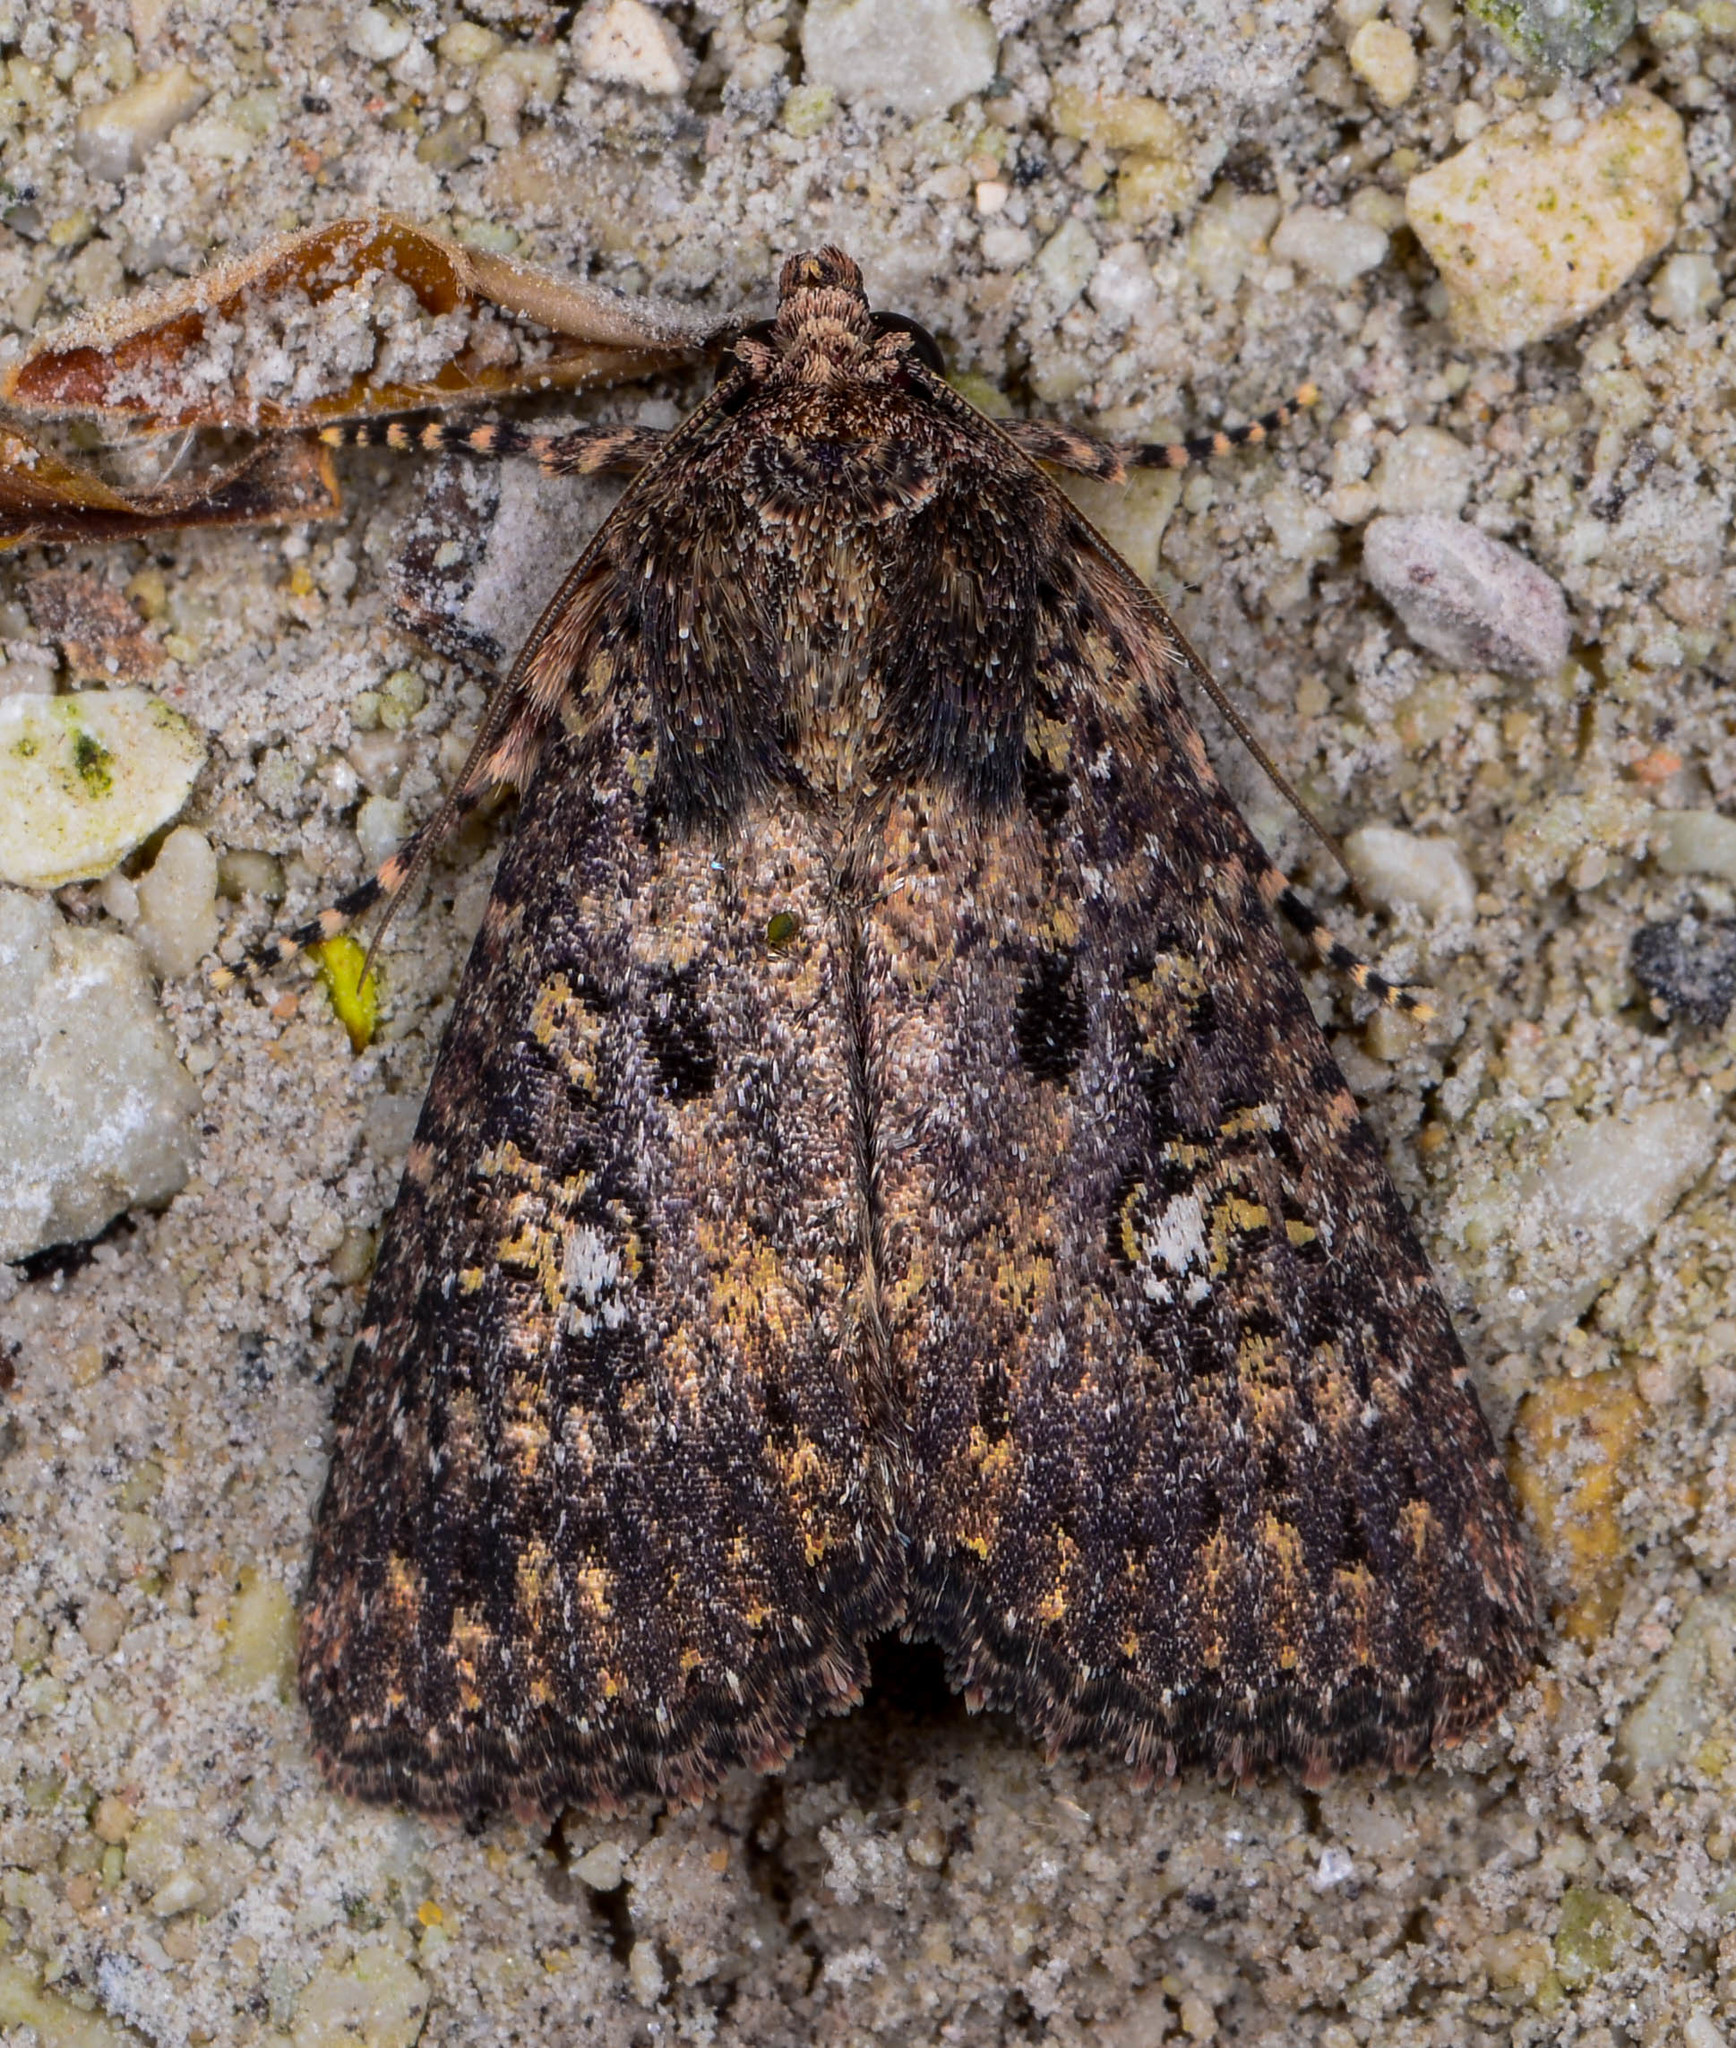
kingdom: Animalia
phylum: Arthropoda
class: Insecta
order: Lepidoptera
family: Noctuidae
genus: Condica
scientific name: Condica vecors
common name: Dusky groundling
